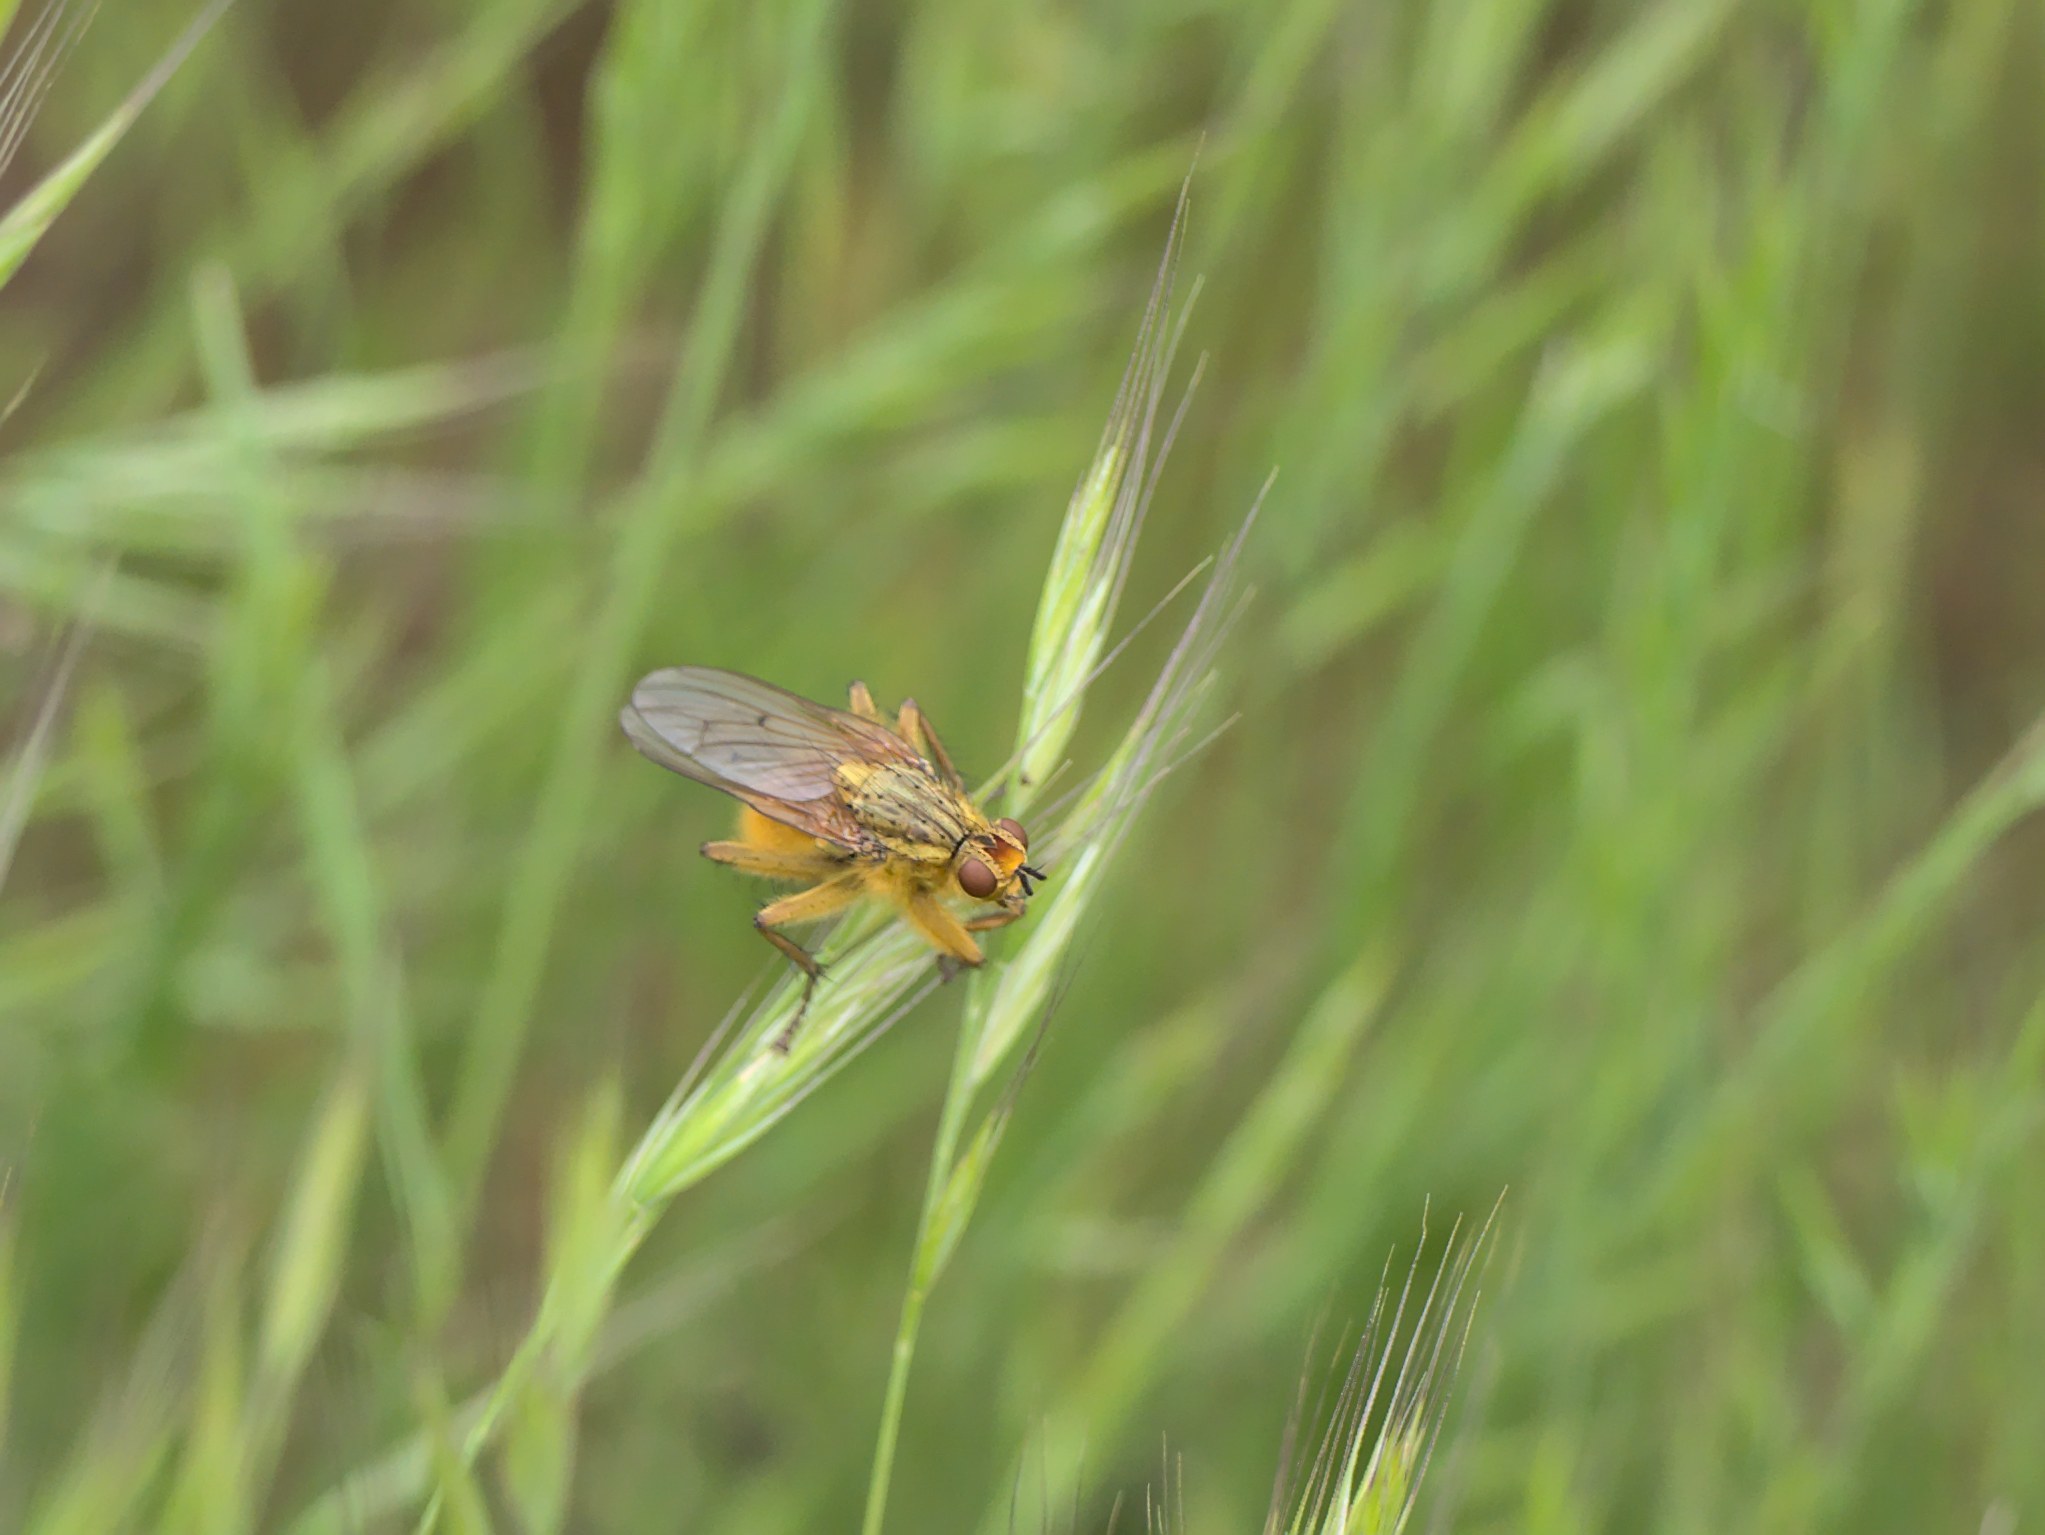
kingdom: Animalia
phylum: Arthropoda
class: Insecta
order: Diptera
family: Scathophagidae
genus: Scathophaga
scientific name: Scathophaga stercoraria
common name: Yellow dung fly
